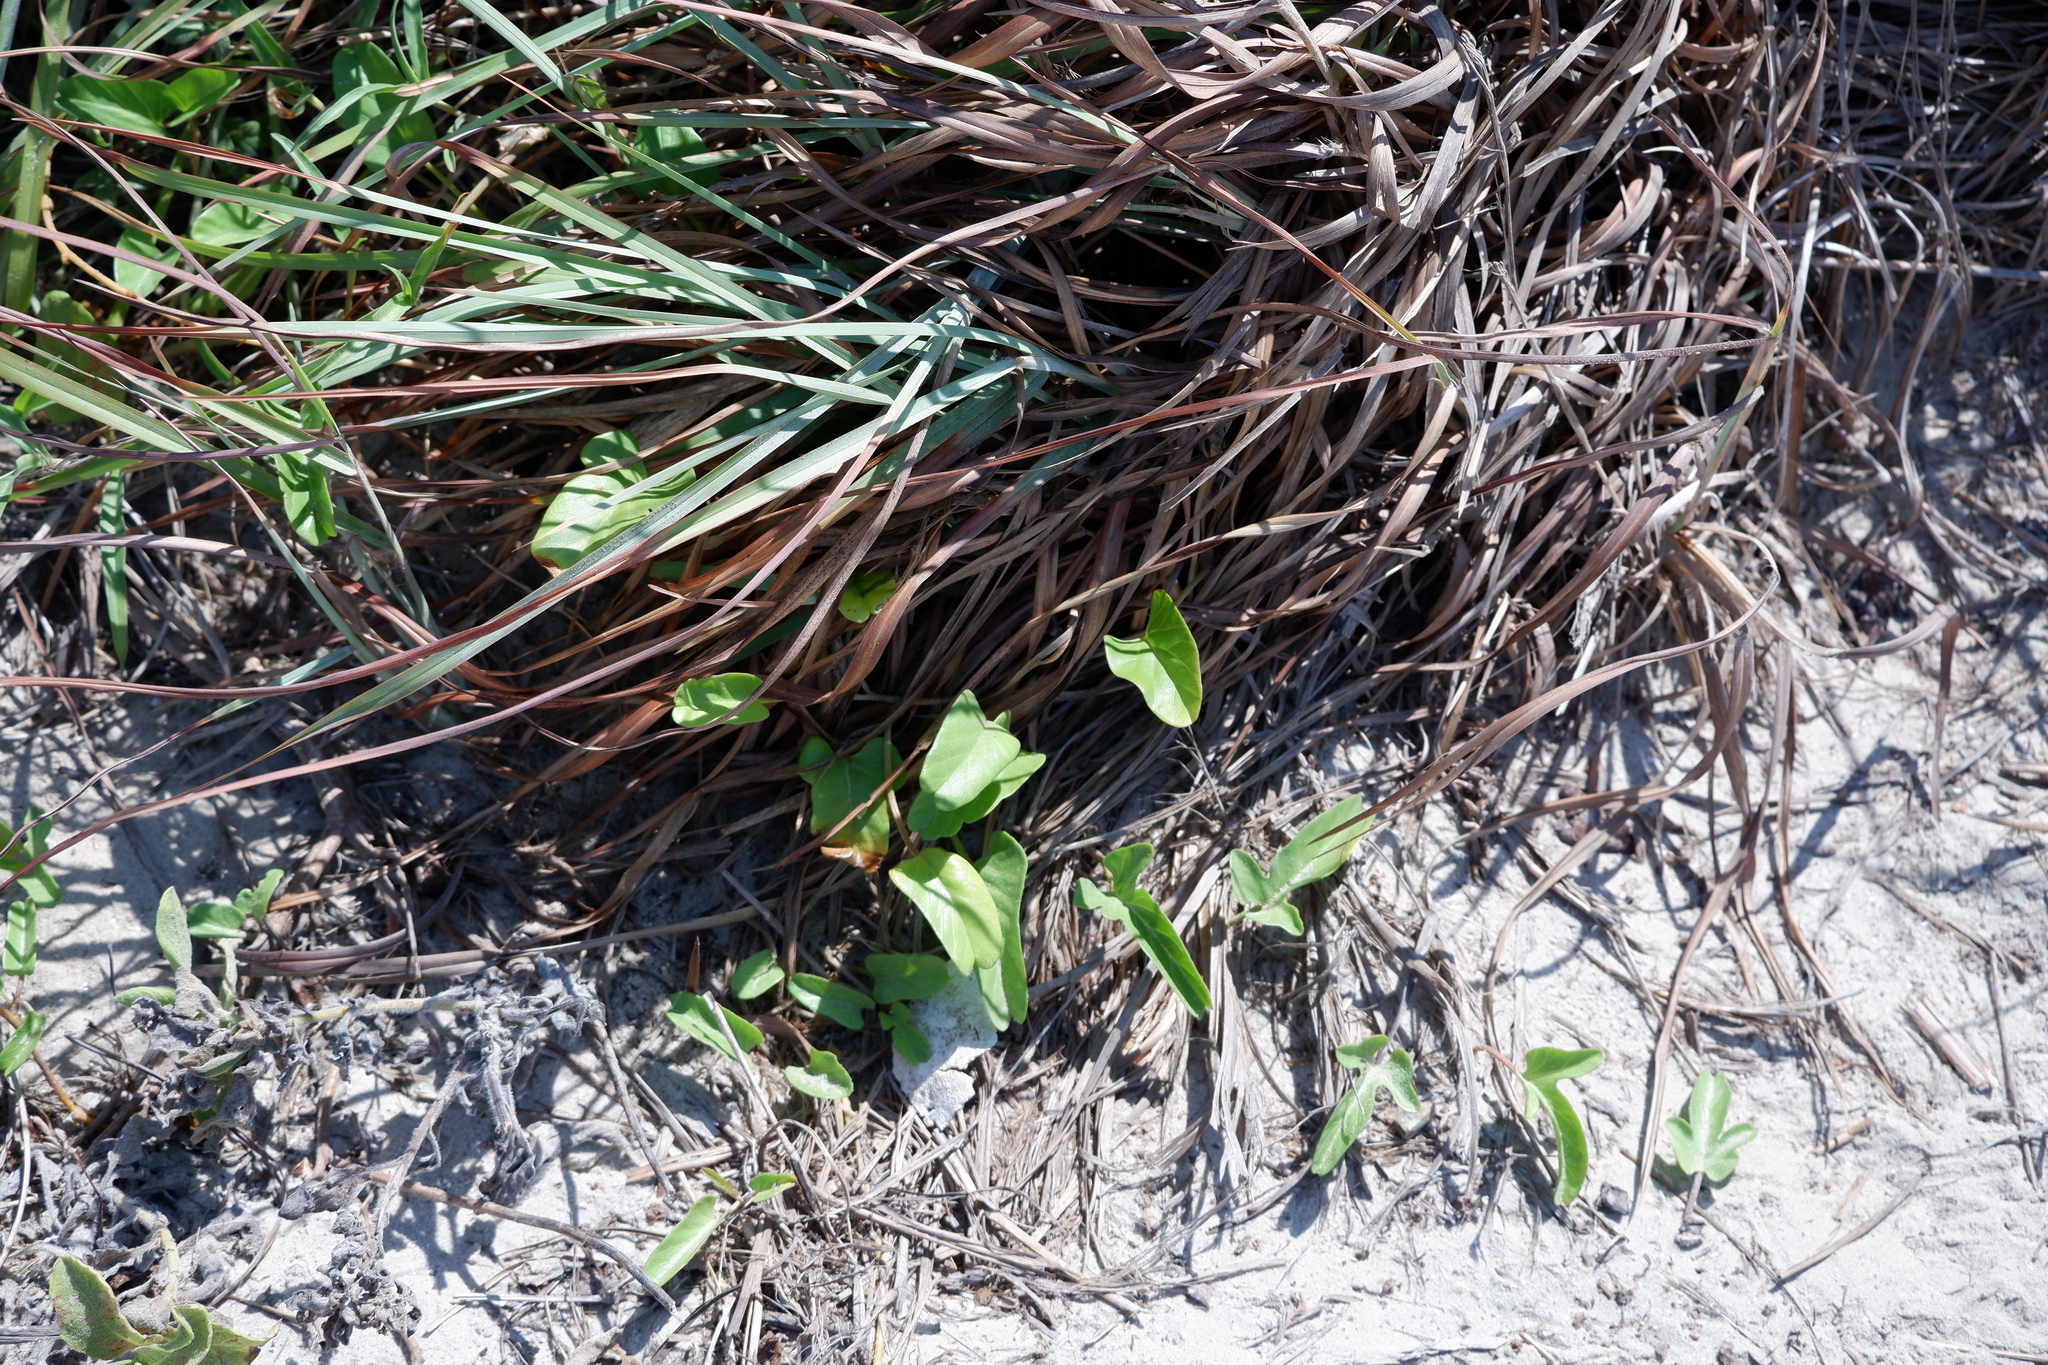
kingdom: Plantae
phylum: Tracheophyta
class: Magnoliopsida
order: Solanales
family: Convolvulaceae
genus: Ipomoea
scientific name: Ipomoea imperati
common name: Fiddle-leaf morning-glory
